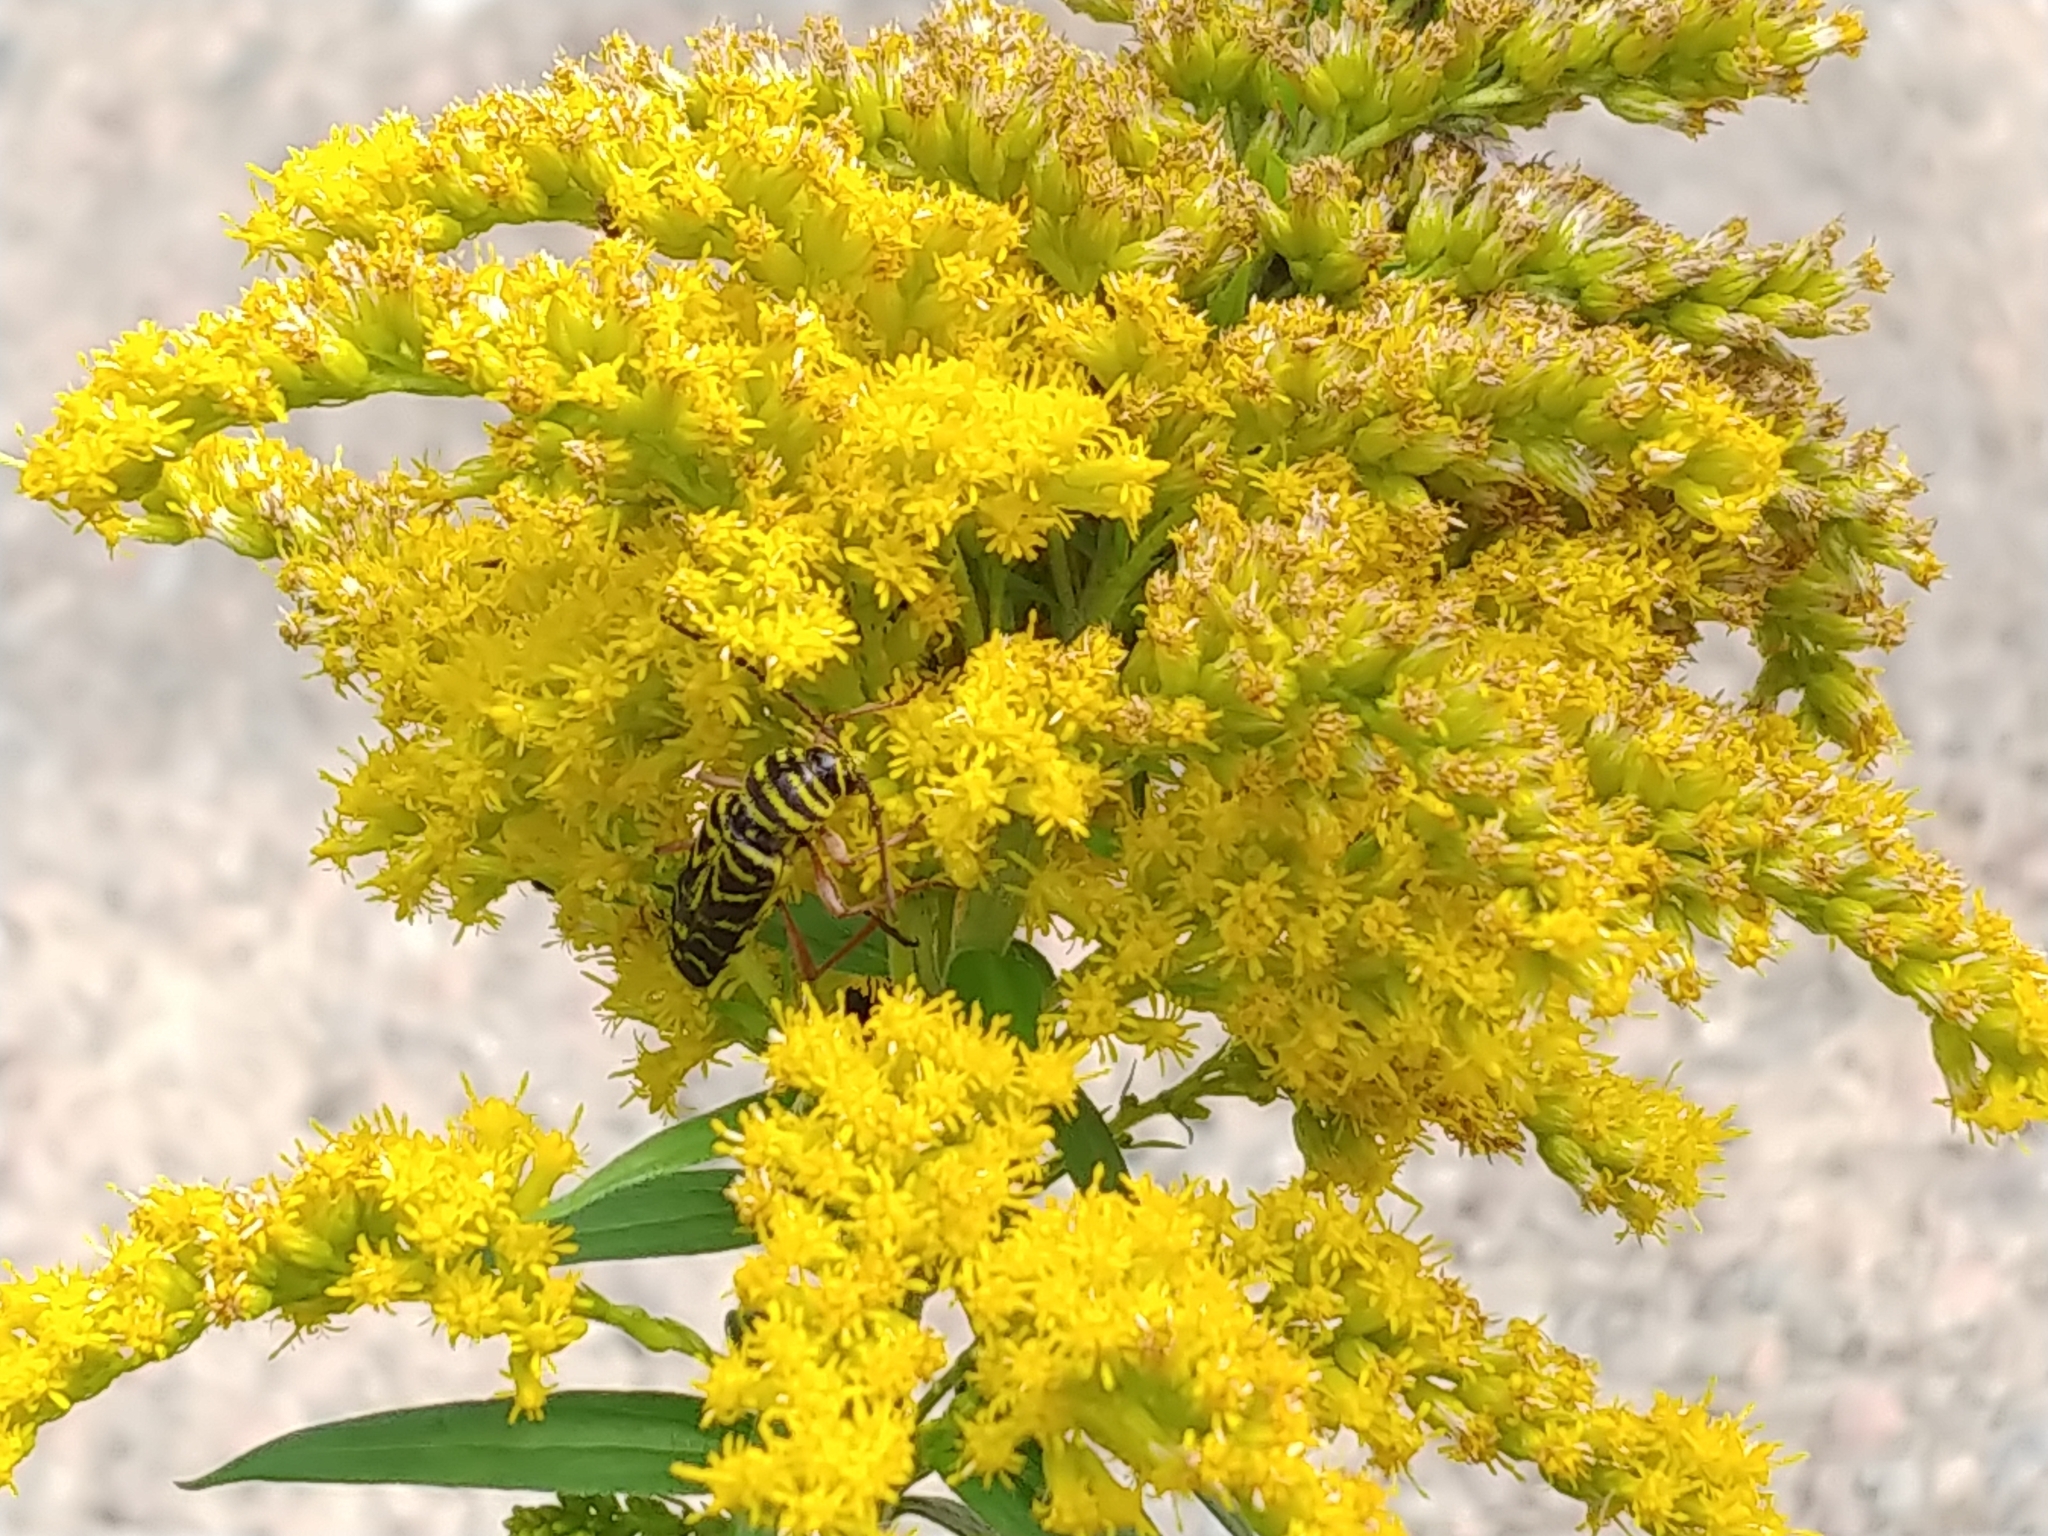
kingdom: Animalia
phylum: Arthropoda
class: Insecta
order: Coleoptera
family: Cerambycidae
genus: Megacyllene
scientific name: Megacyllene robiniae
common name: Locust borer
